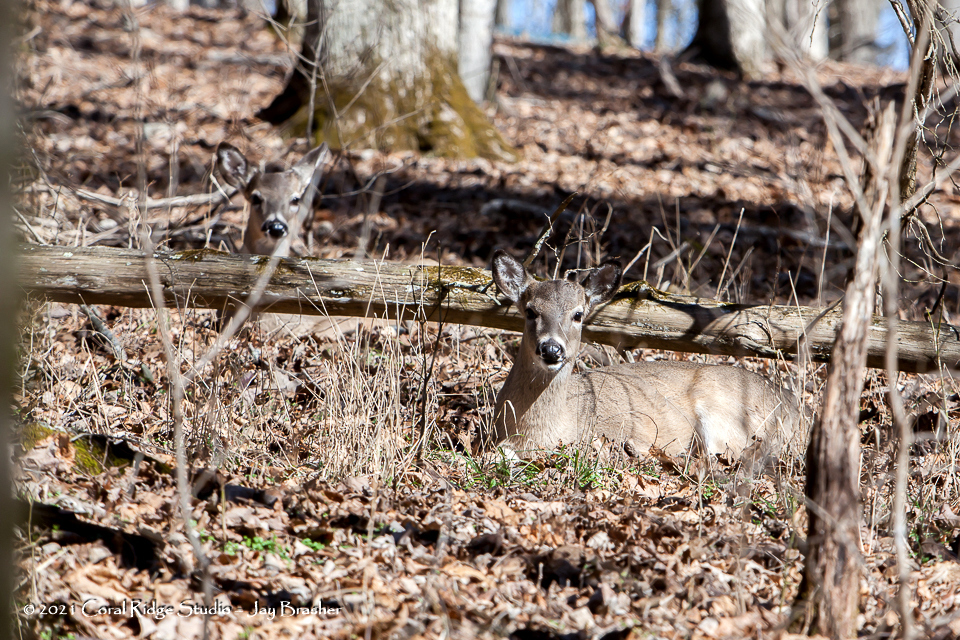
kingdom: Animalia
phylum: Chordata
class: Mammalia
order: Artiodactyla
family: Cervidae
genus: Odocoileus
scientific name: Odocoileus virginianus
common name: White-tailed deer
